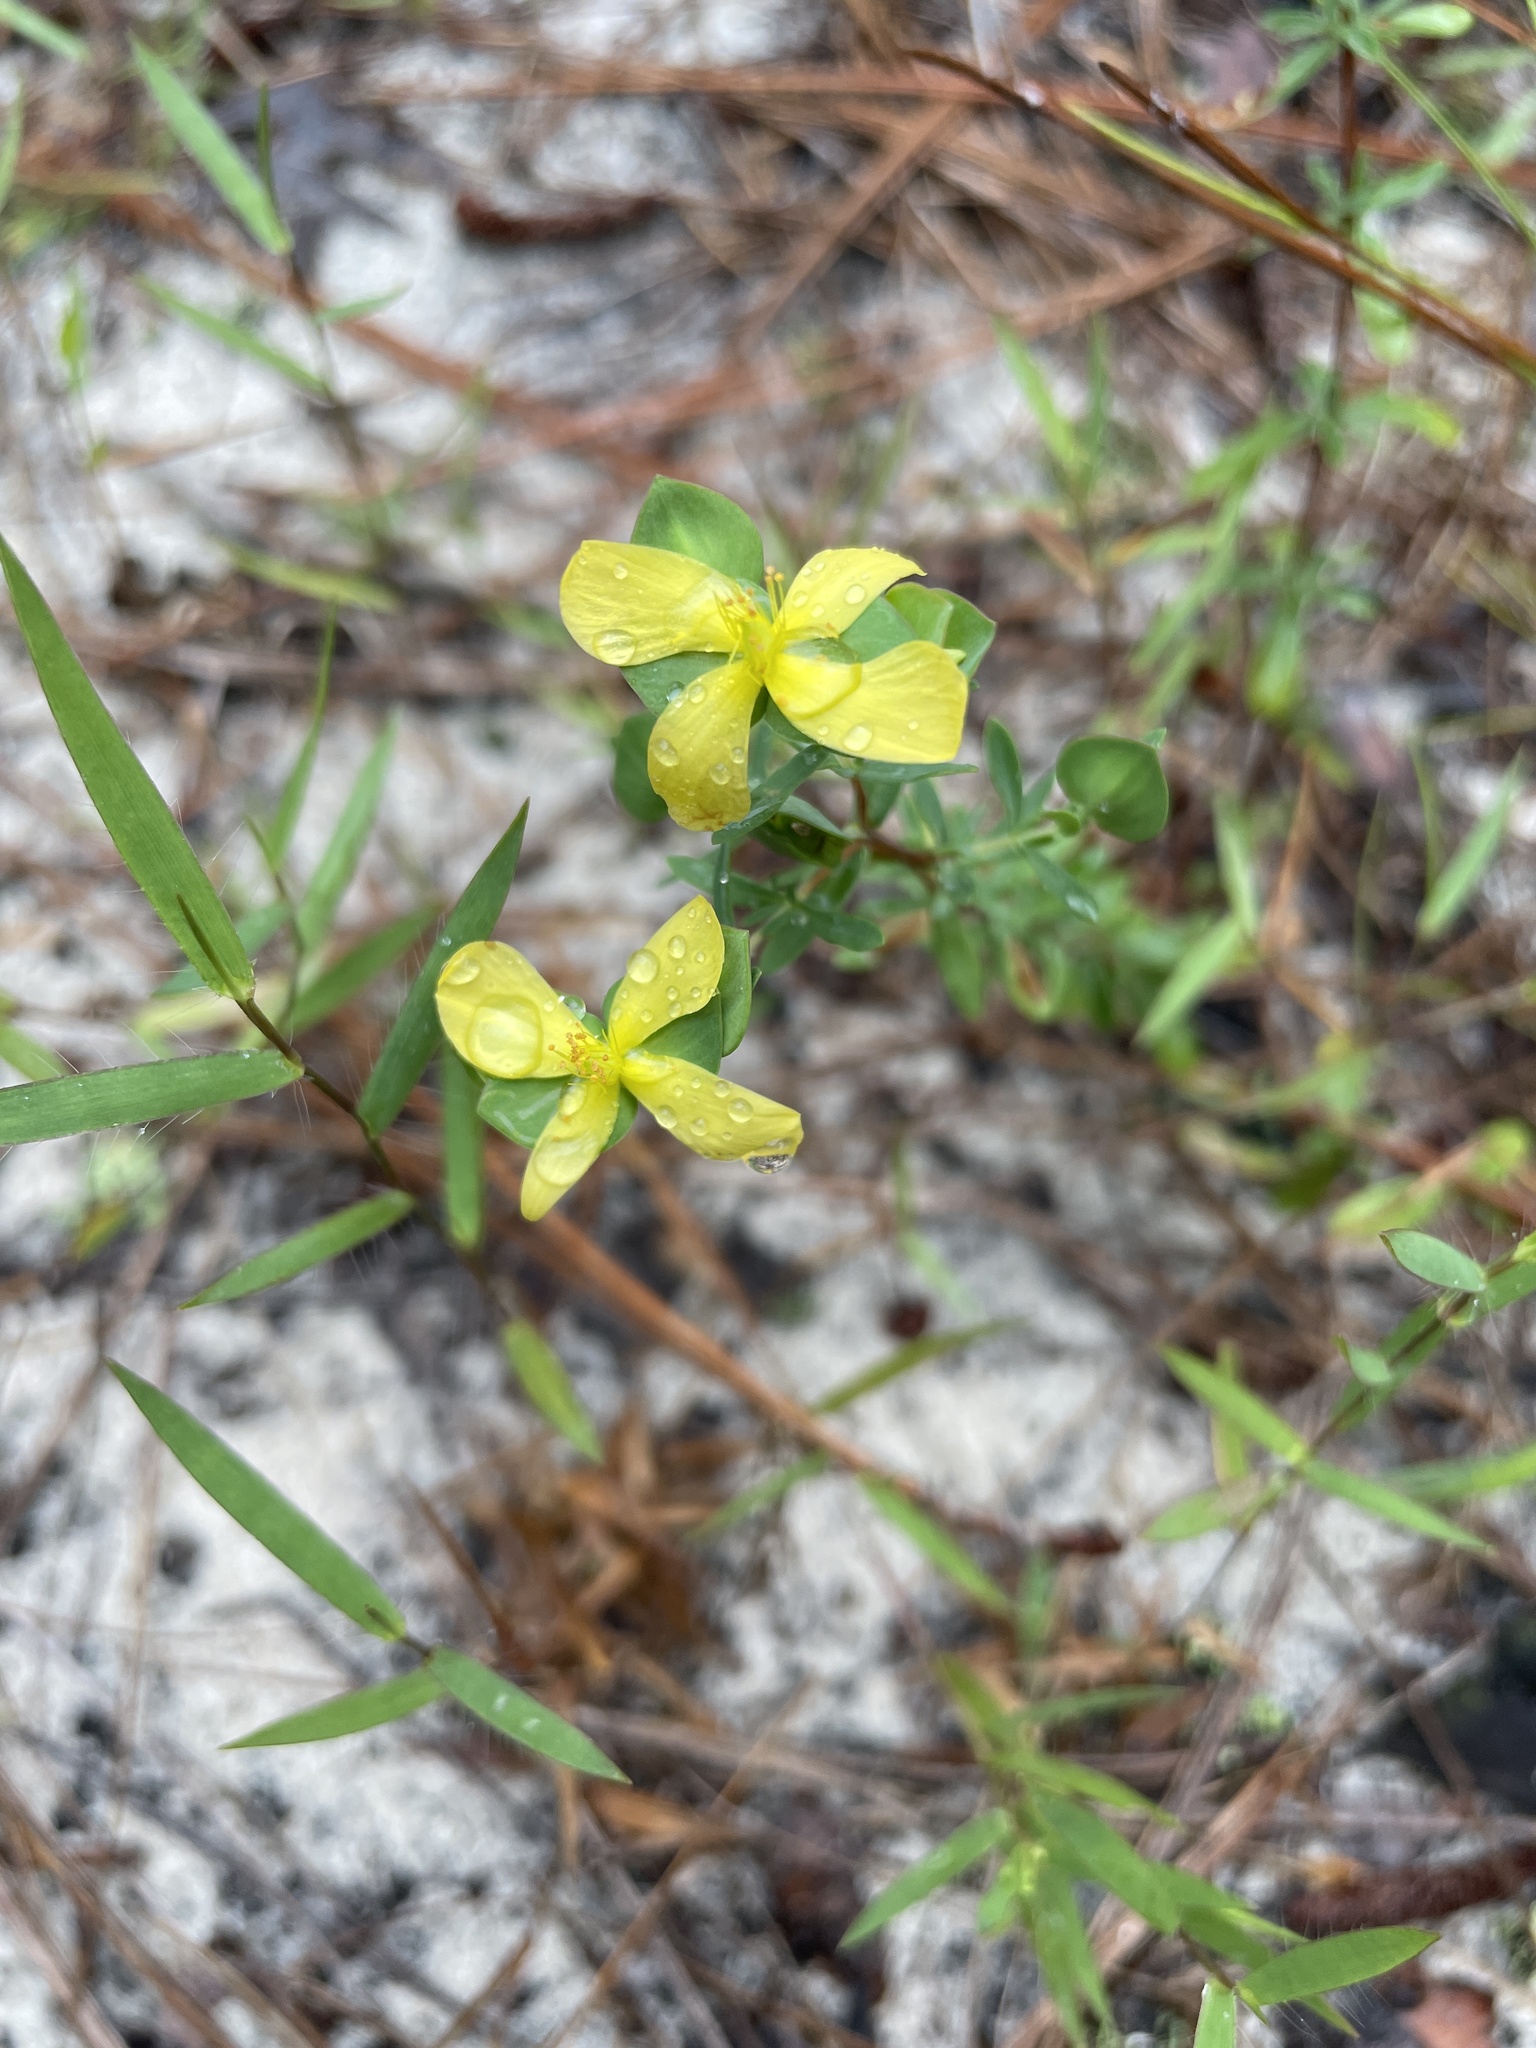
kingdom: Plantae
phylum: Tracheophyta
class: Magnoliopsida
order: Malpighiales
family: Hypericaceae
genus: Hypericum
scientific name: Hypericum hypericoides
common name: St. andrew's cross
